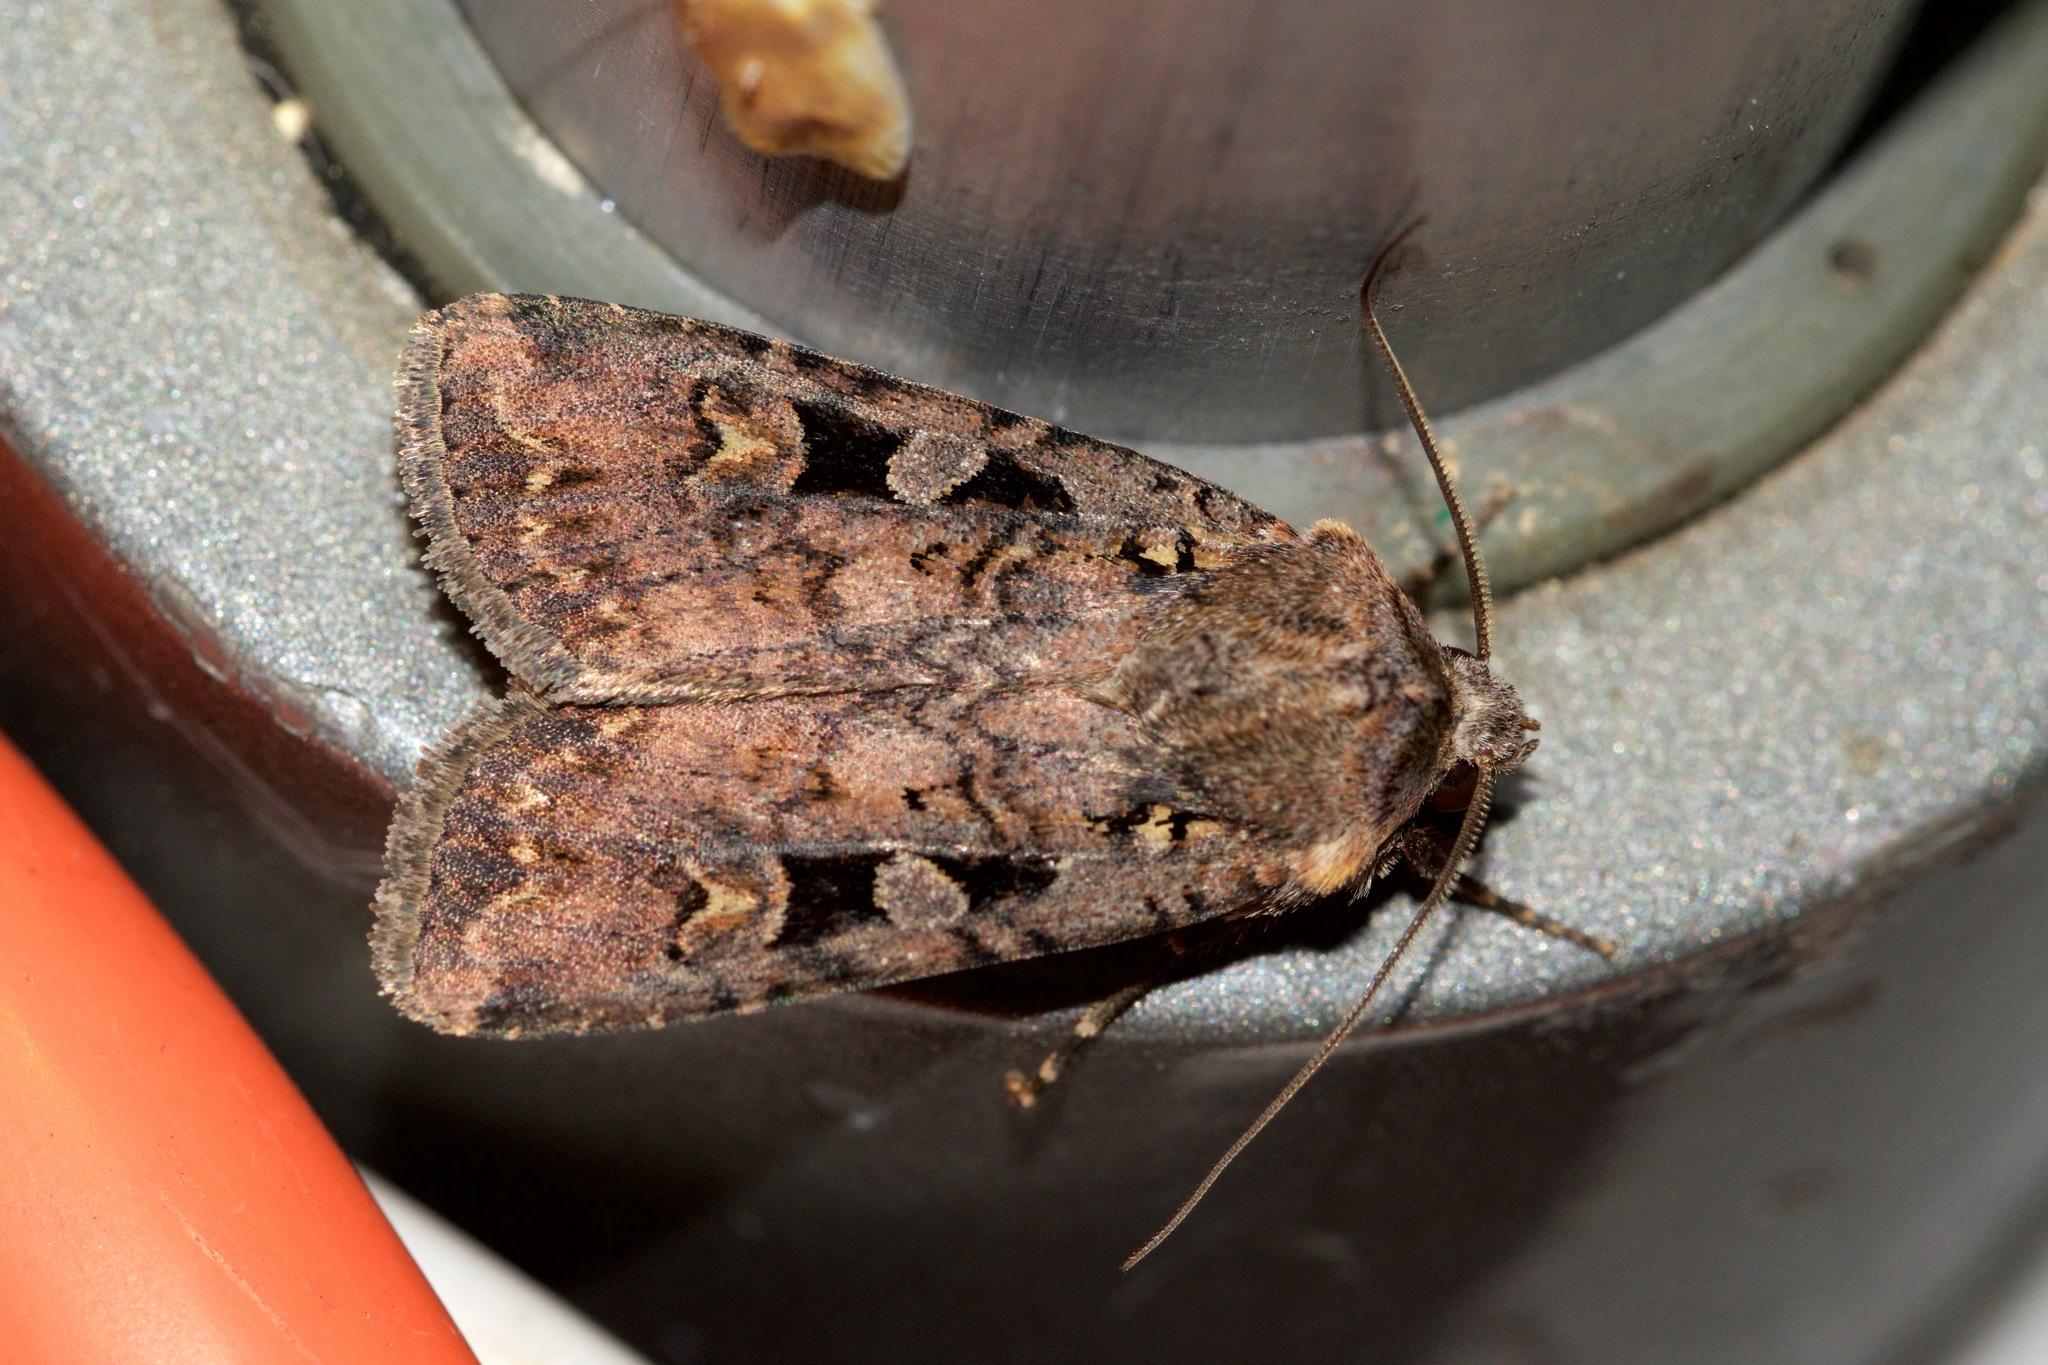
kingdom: Animalia
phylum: Arthropoda
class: Insecta
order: Lepidoptera
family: Noctuidae
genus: Euxoa
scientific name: Euxoa tessellata
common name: Striped cutworm
